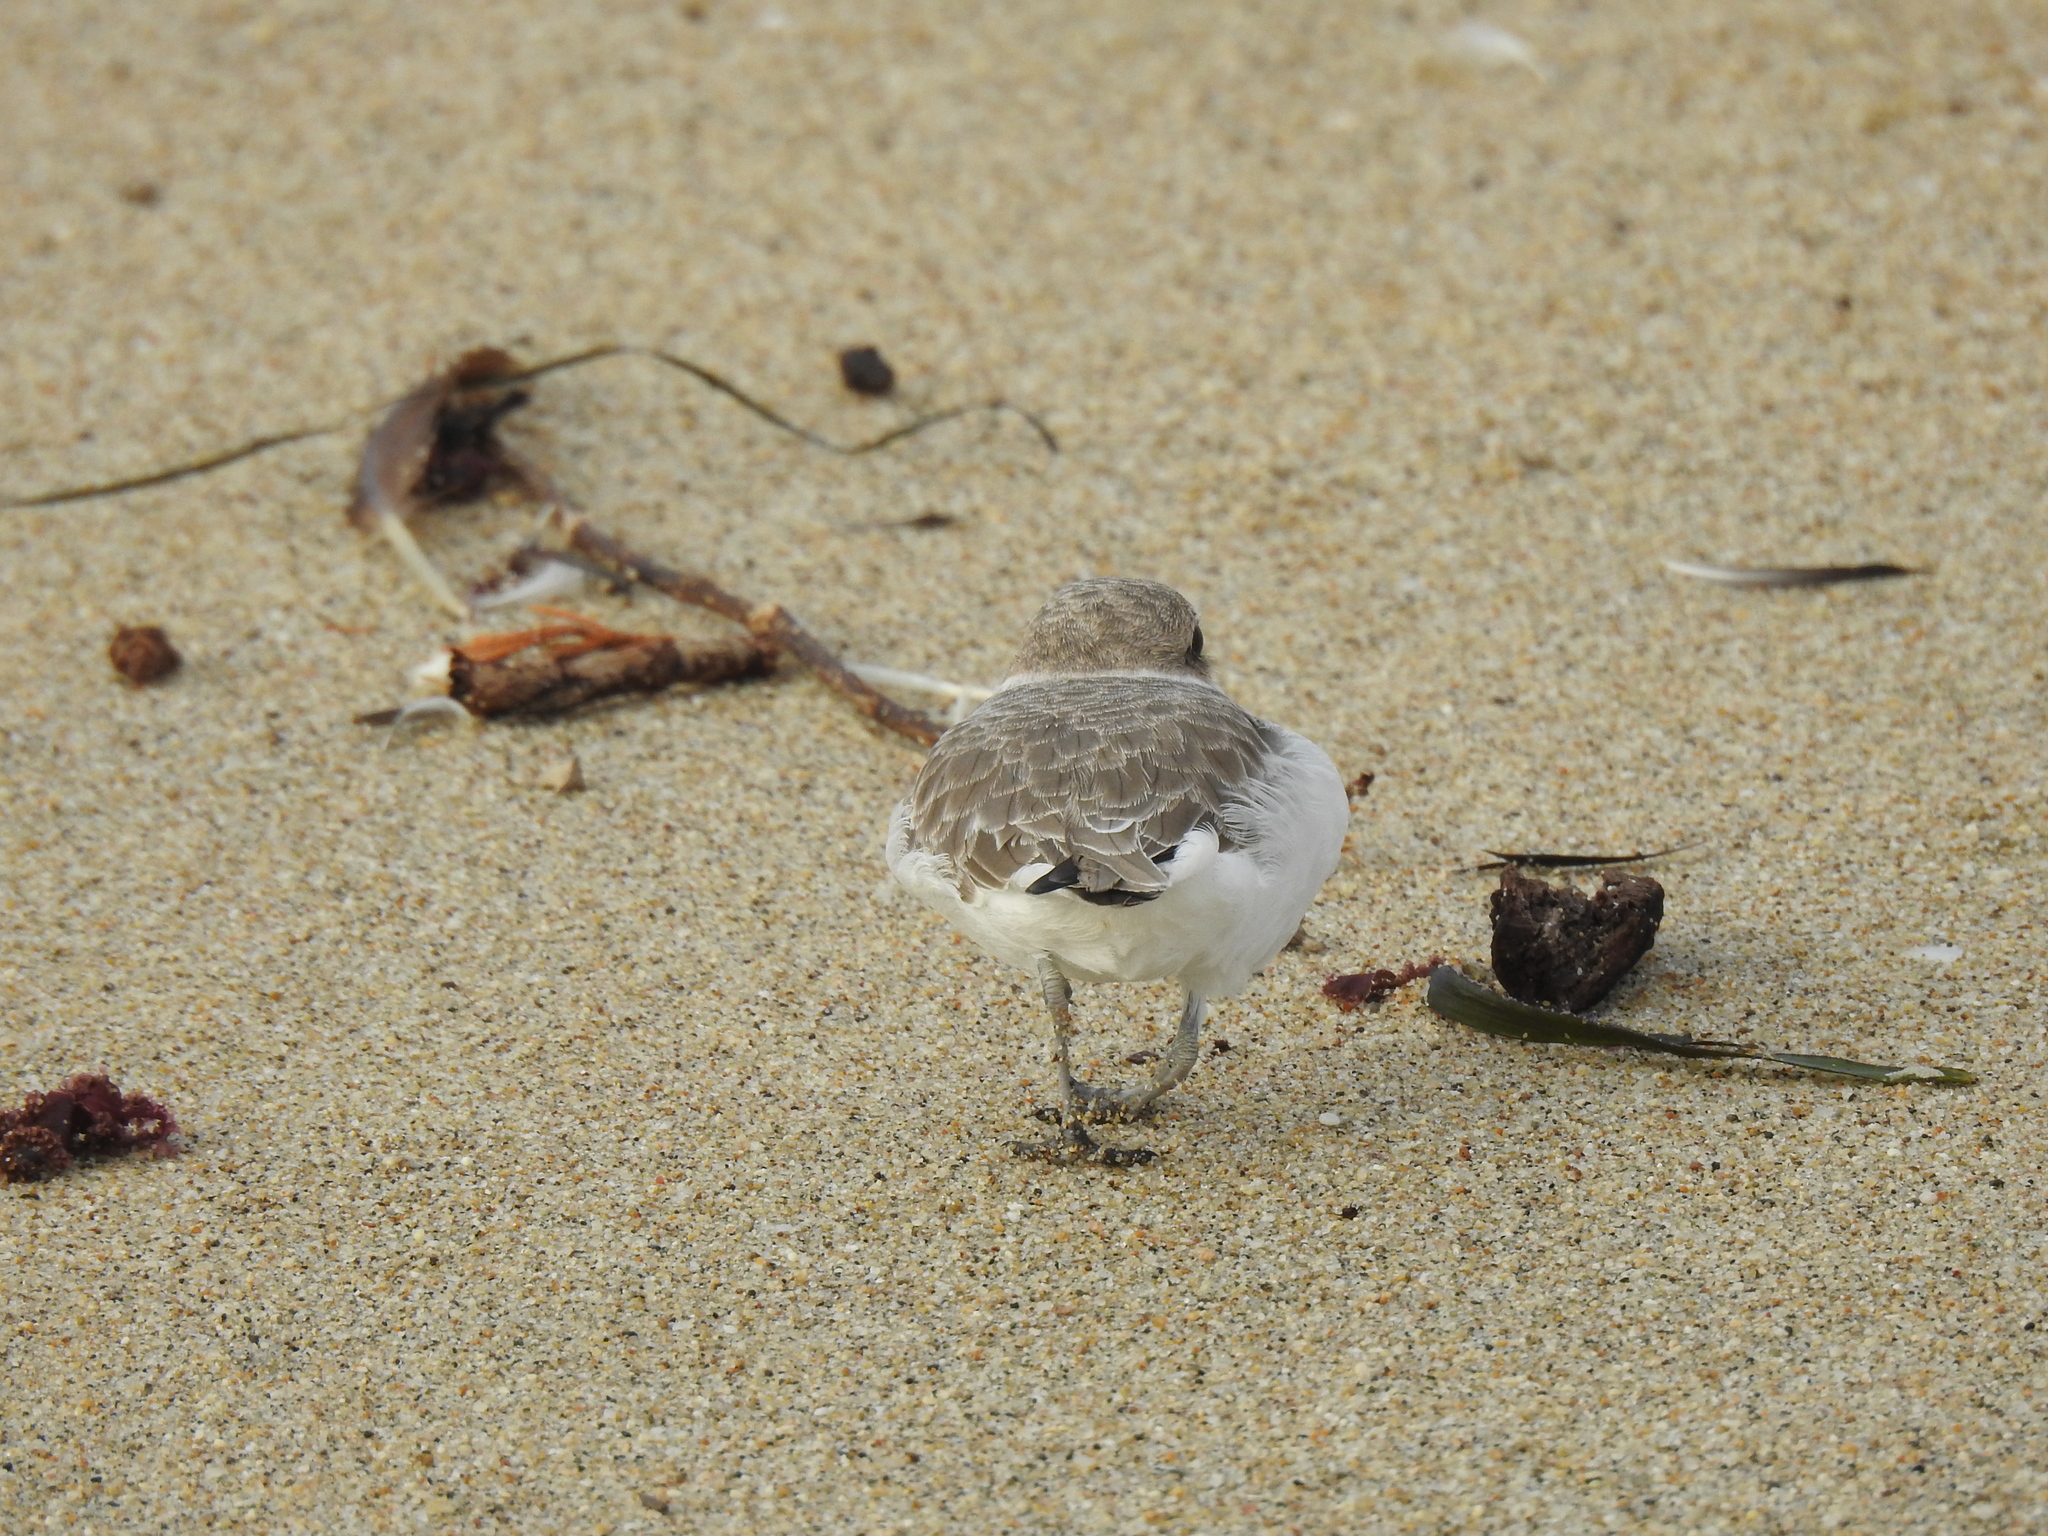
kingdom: Animalia
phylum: Chordata
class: Aves
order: Charadriiformes
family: Charadriidae
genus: Anarhynchus
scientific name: Anarhynchus
